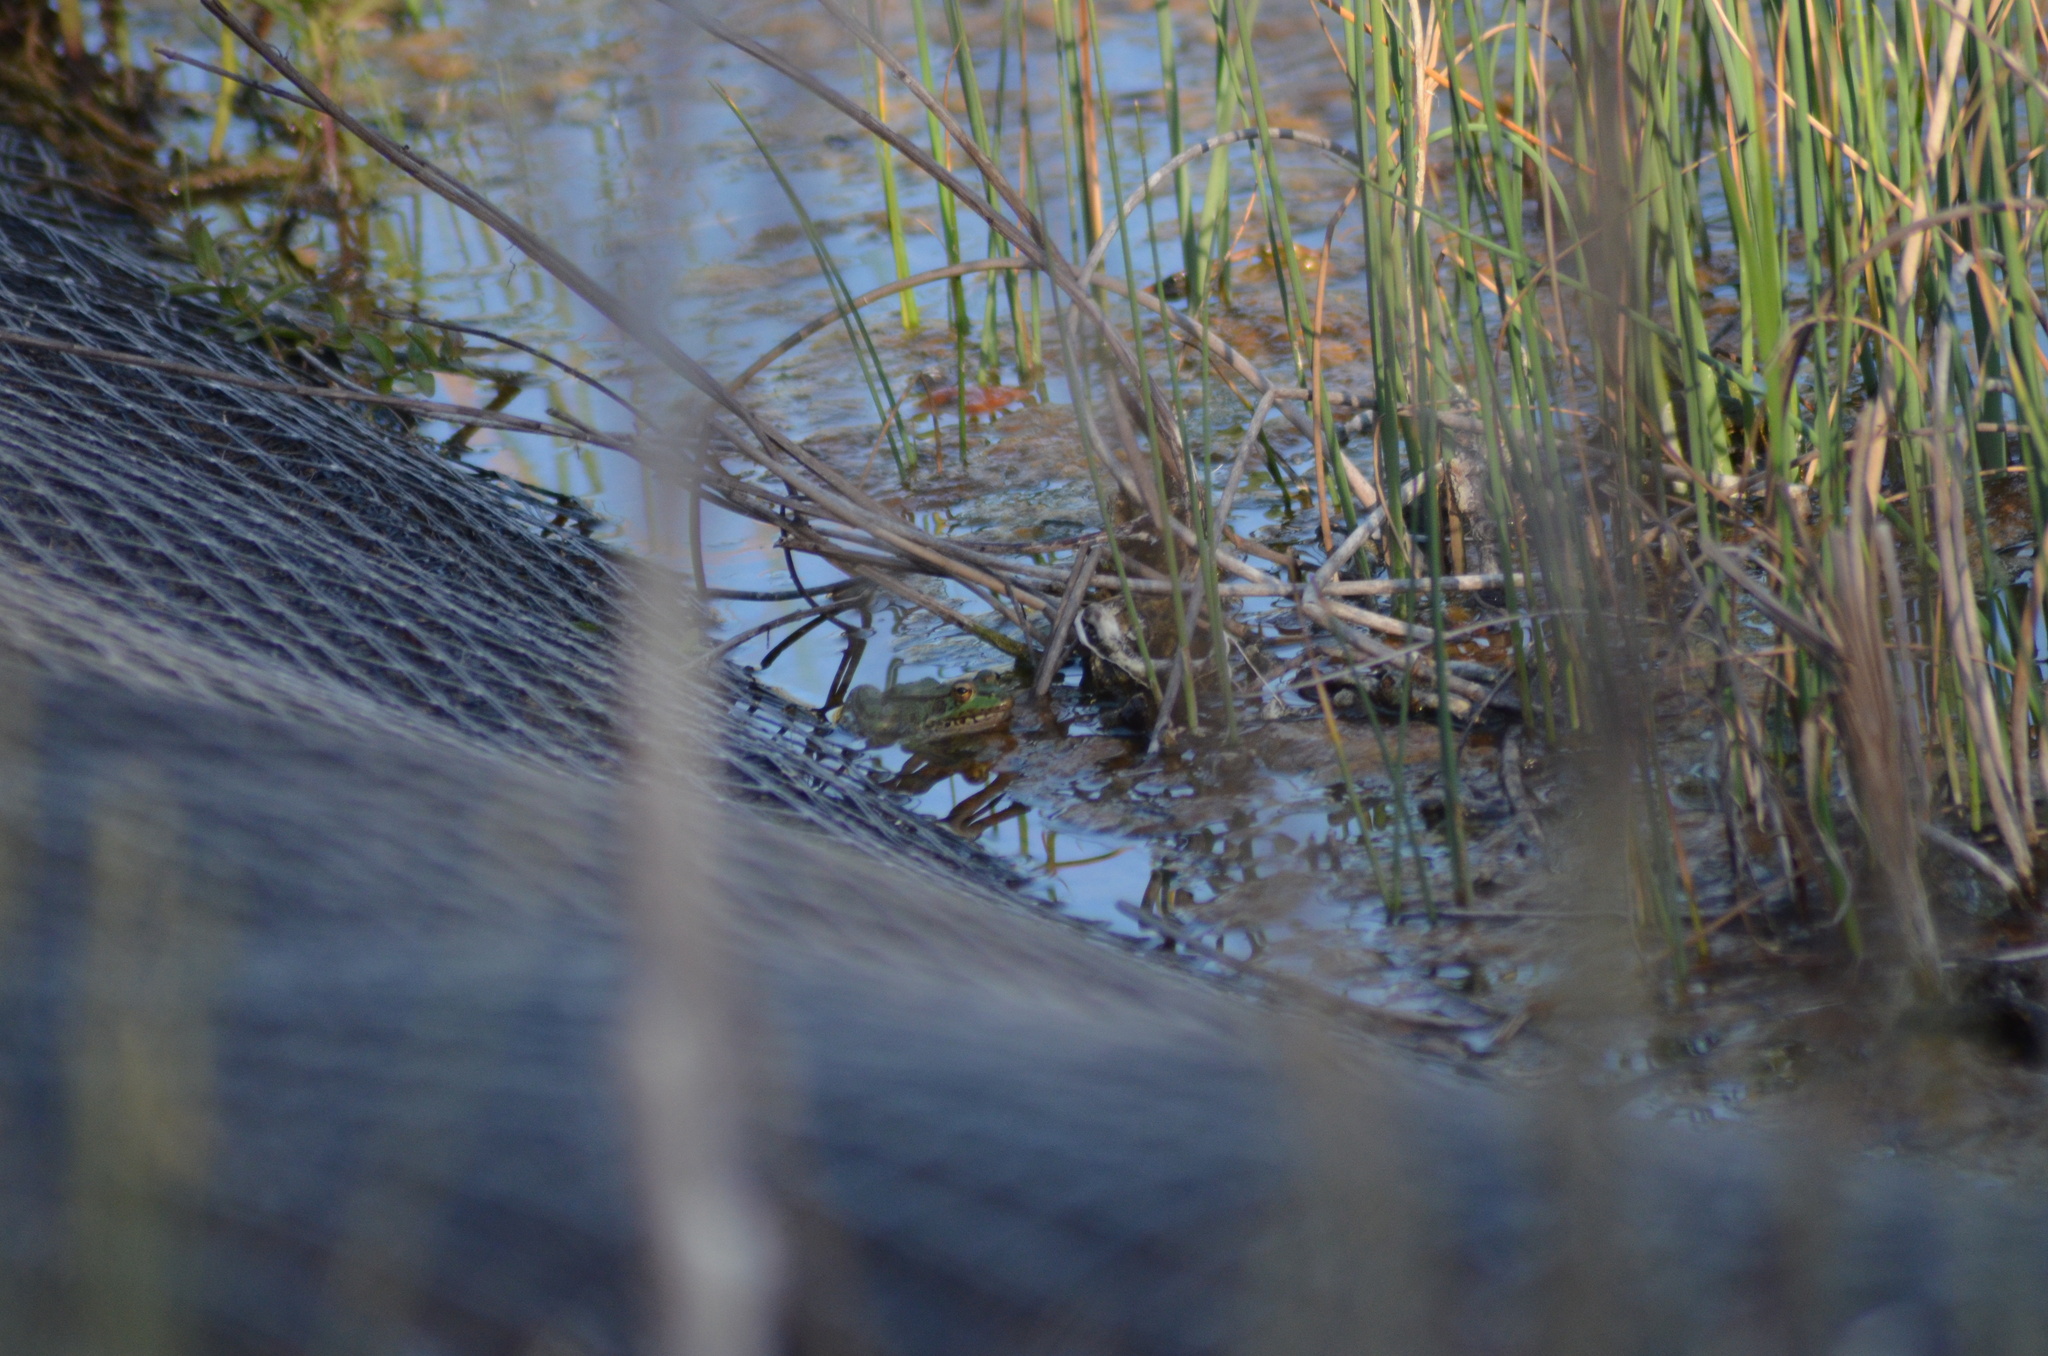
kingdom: Animalia
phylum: Chordata
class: Amphibia
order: Anura
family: Ranidae
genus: Pelophylax
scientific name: Pelophylax
